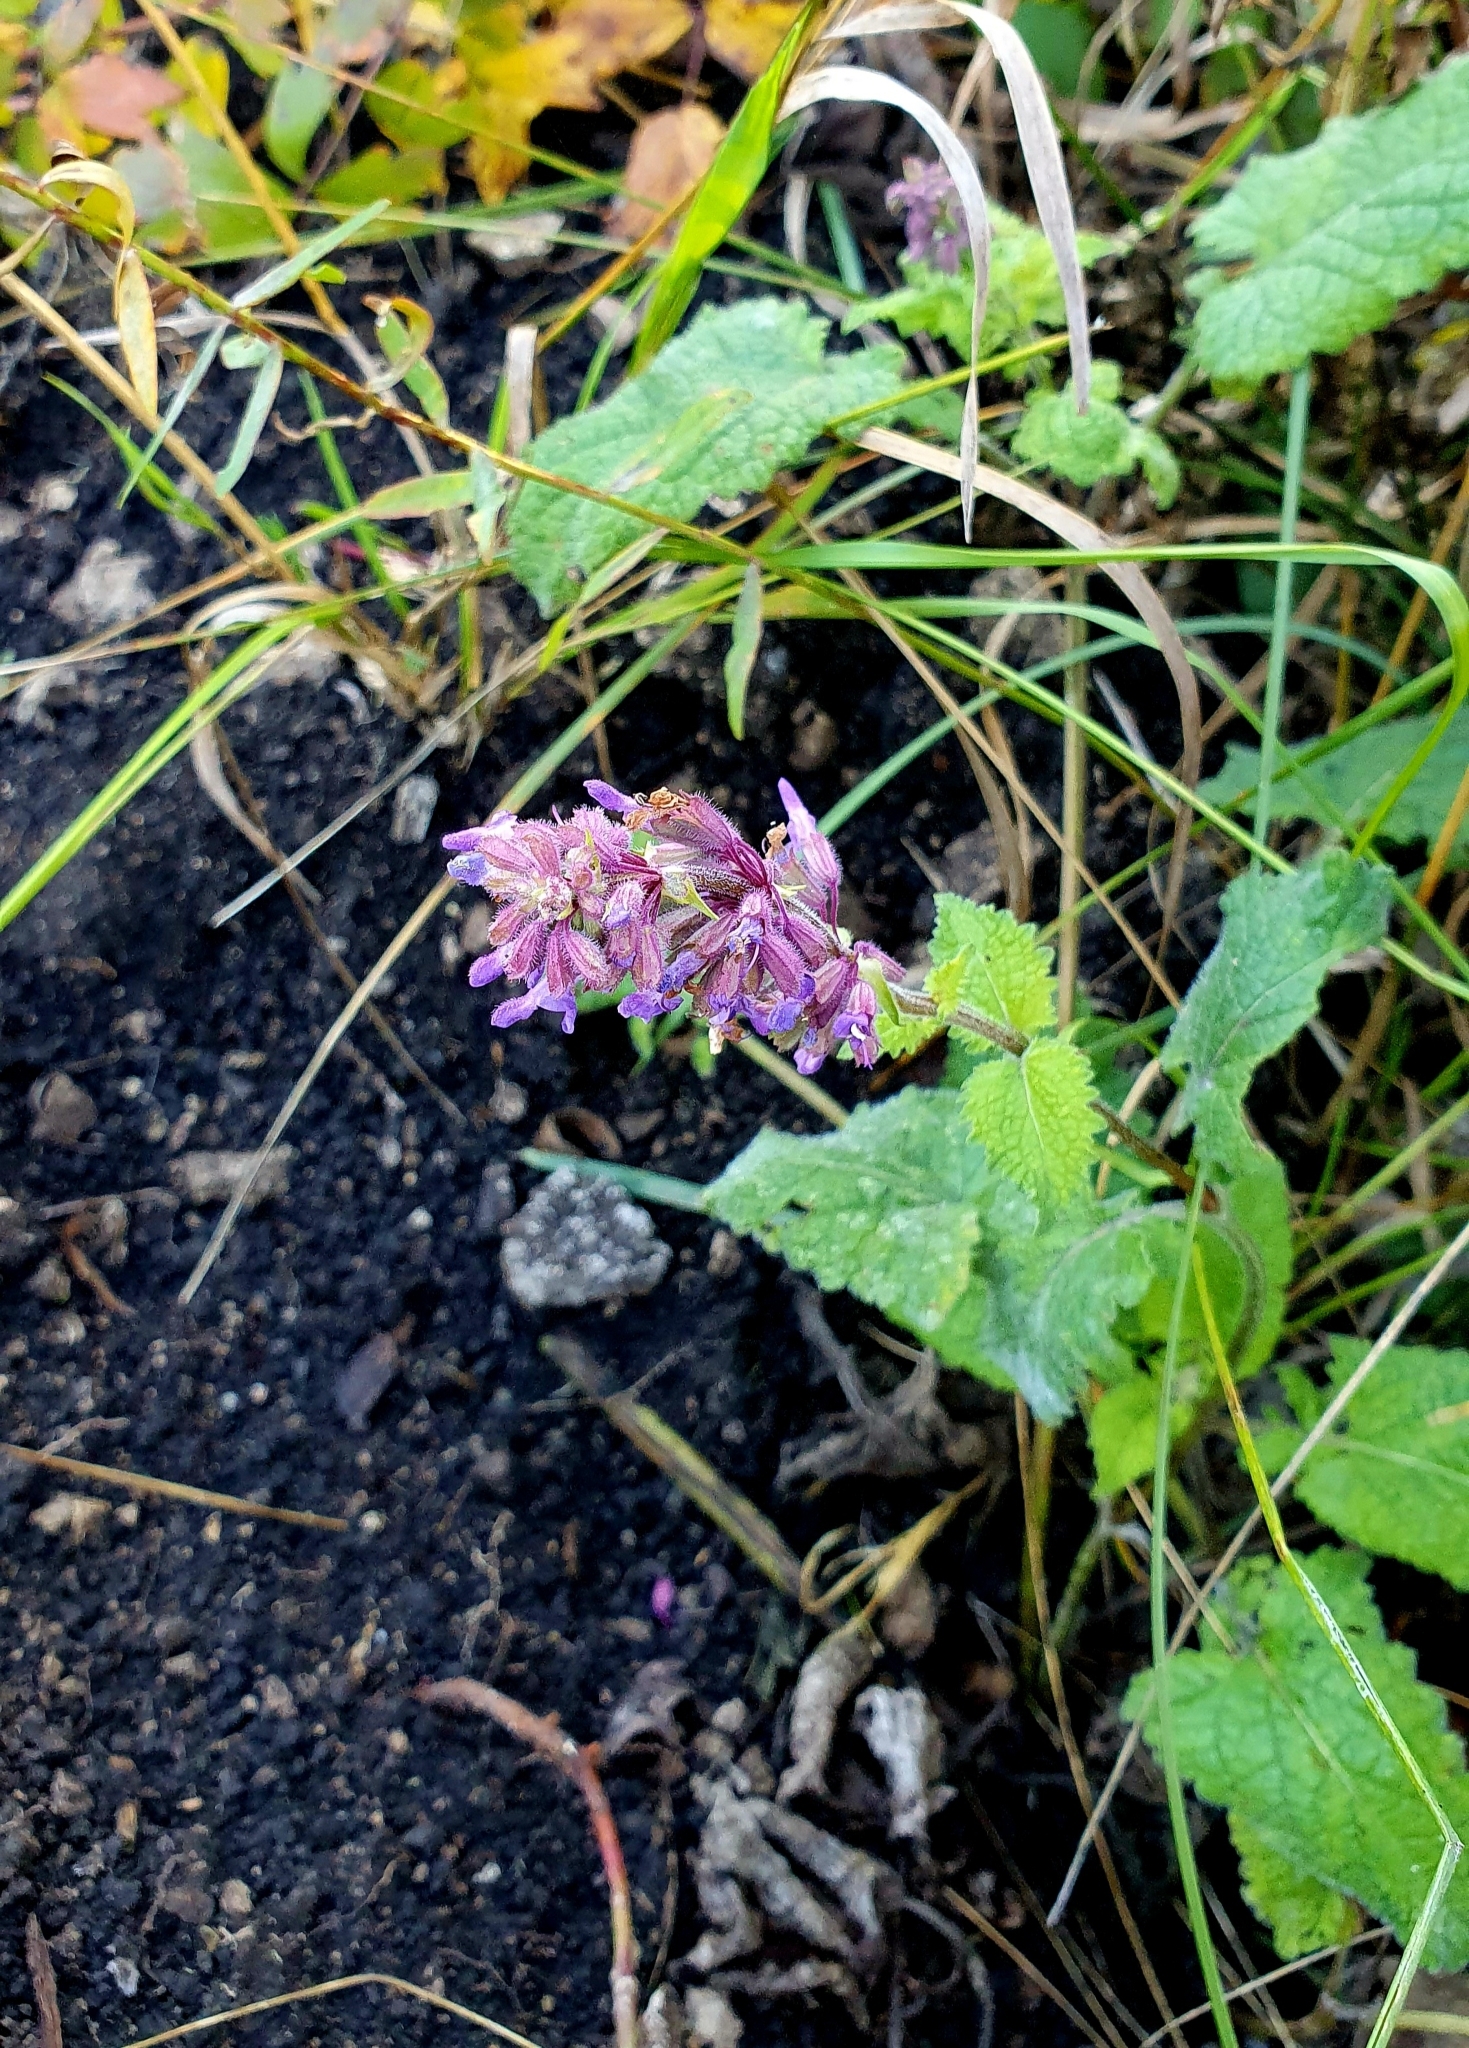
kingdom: Plantae
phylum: Tracheophyta
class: Magnoliopsida
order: Lamiales
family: Lamiaceae
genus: Salvia
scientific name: Salvia verticillata
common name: Whorled clary
